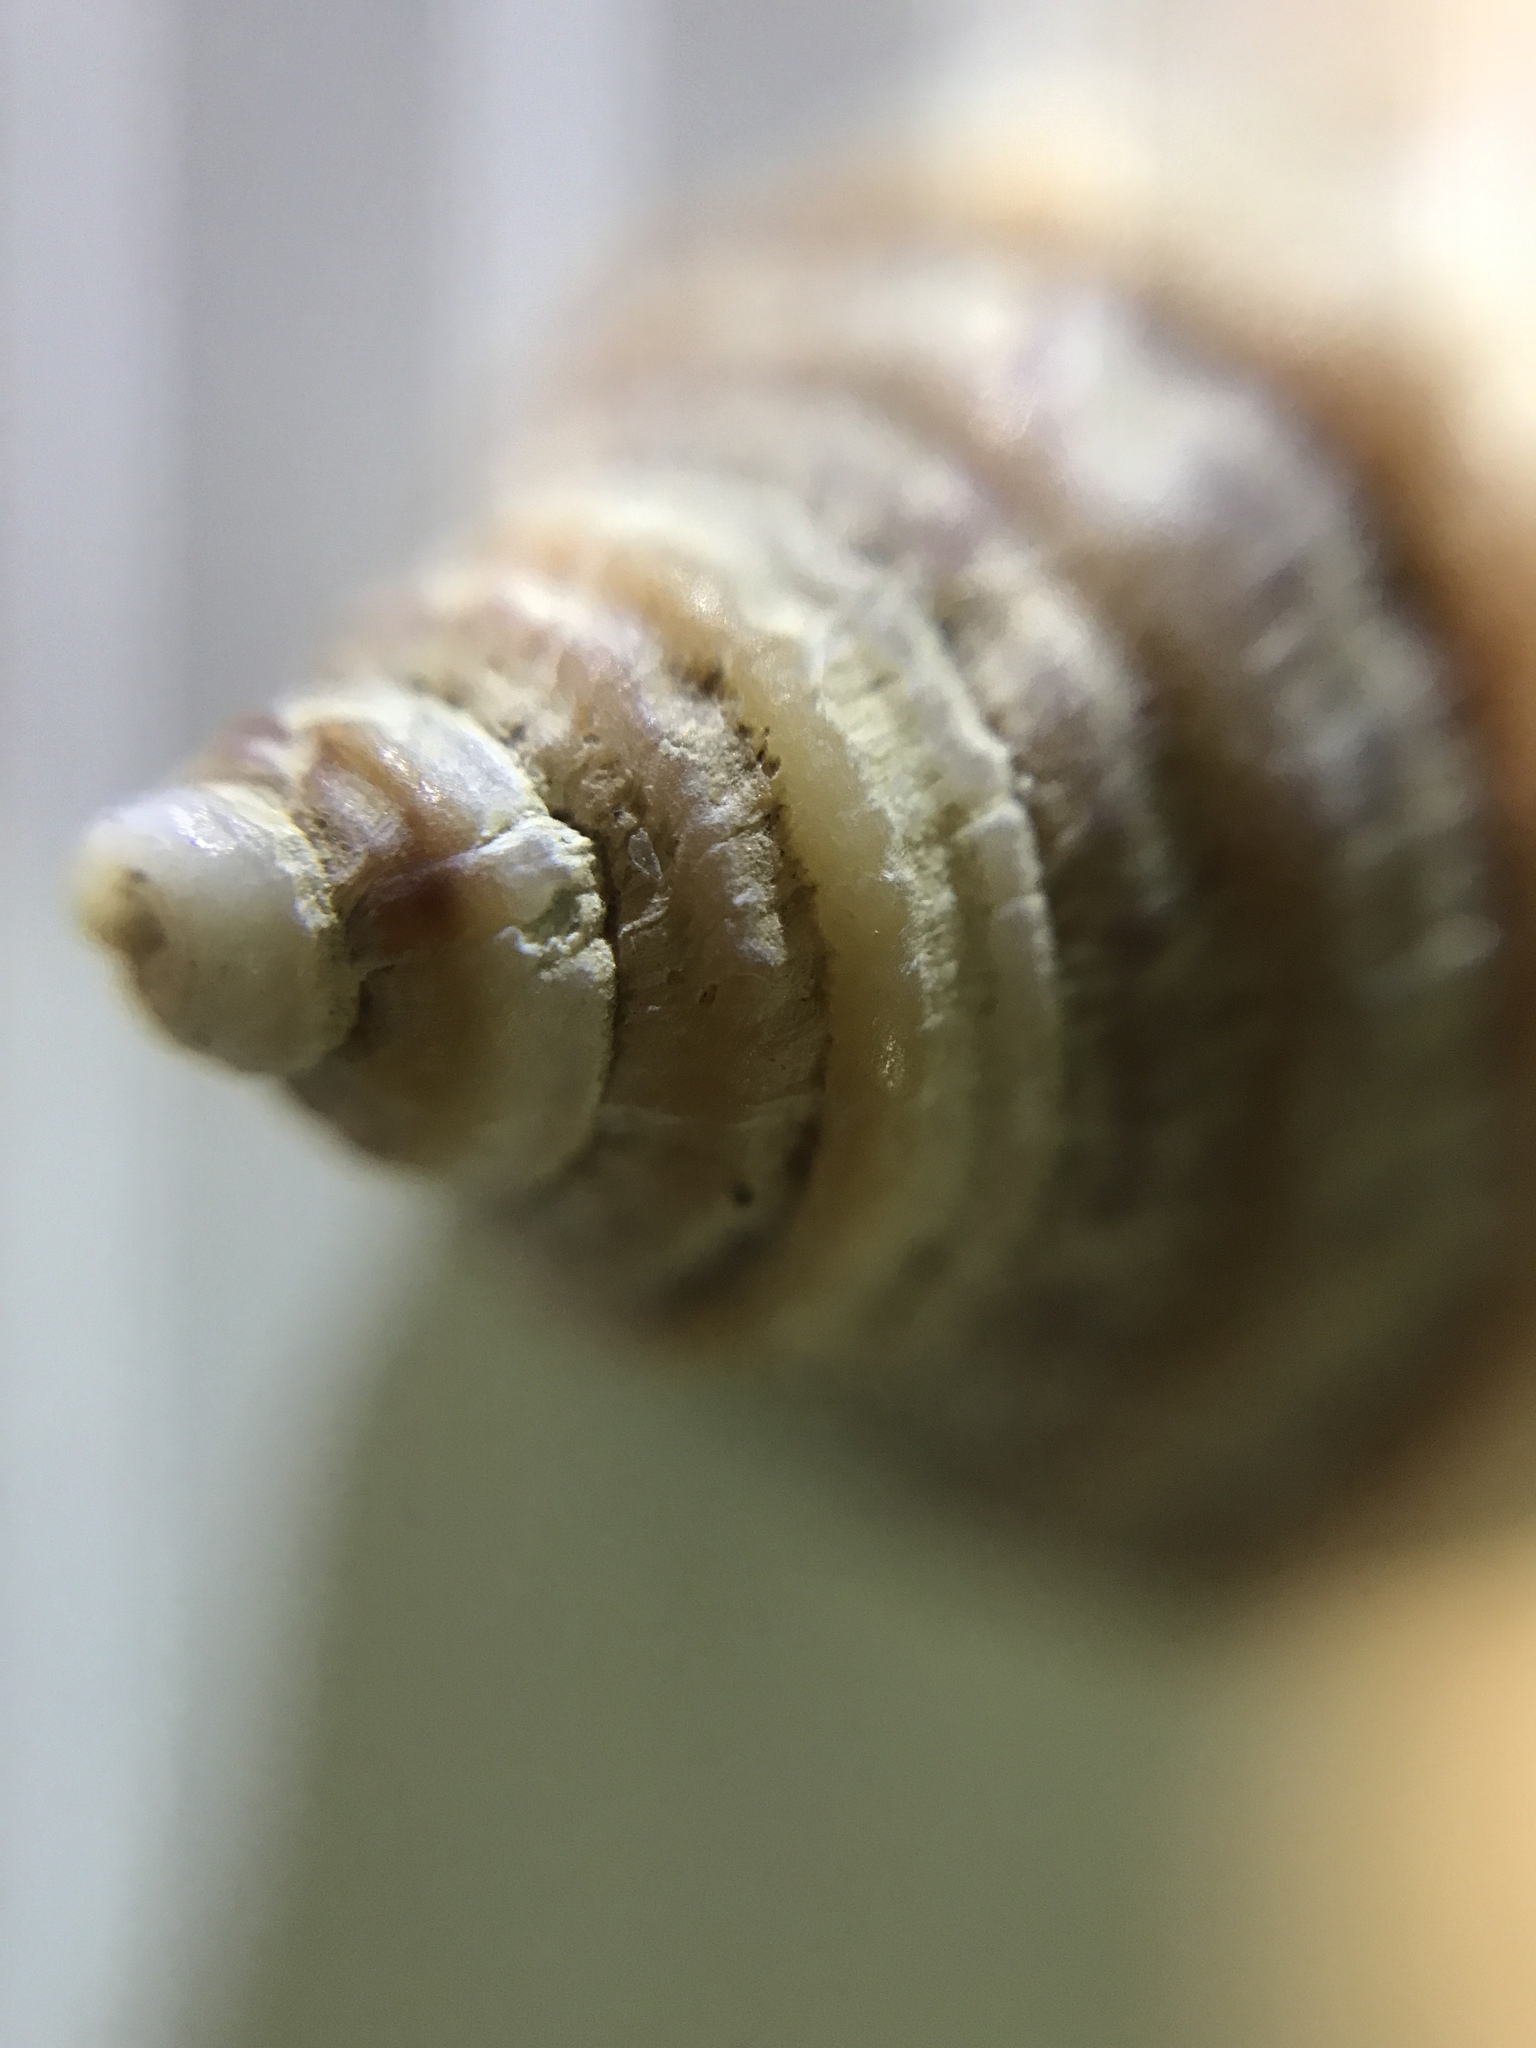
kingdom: Animalia
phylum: Mollusca
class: Gastropoda
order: Neogastropoda
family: Muricidae
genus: Nucella
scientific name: Nucella lapillus
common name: Dog whelk
